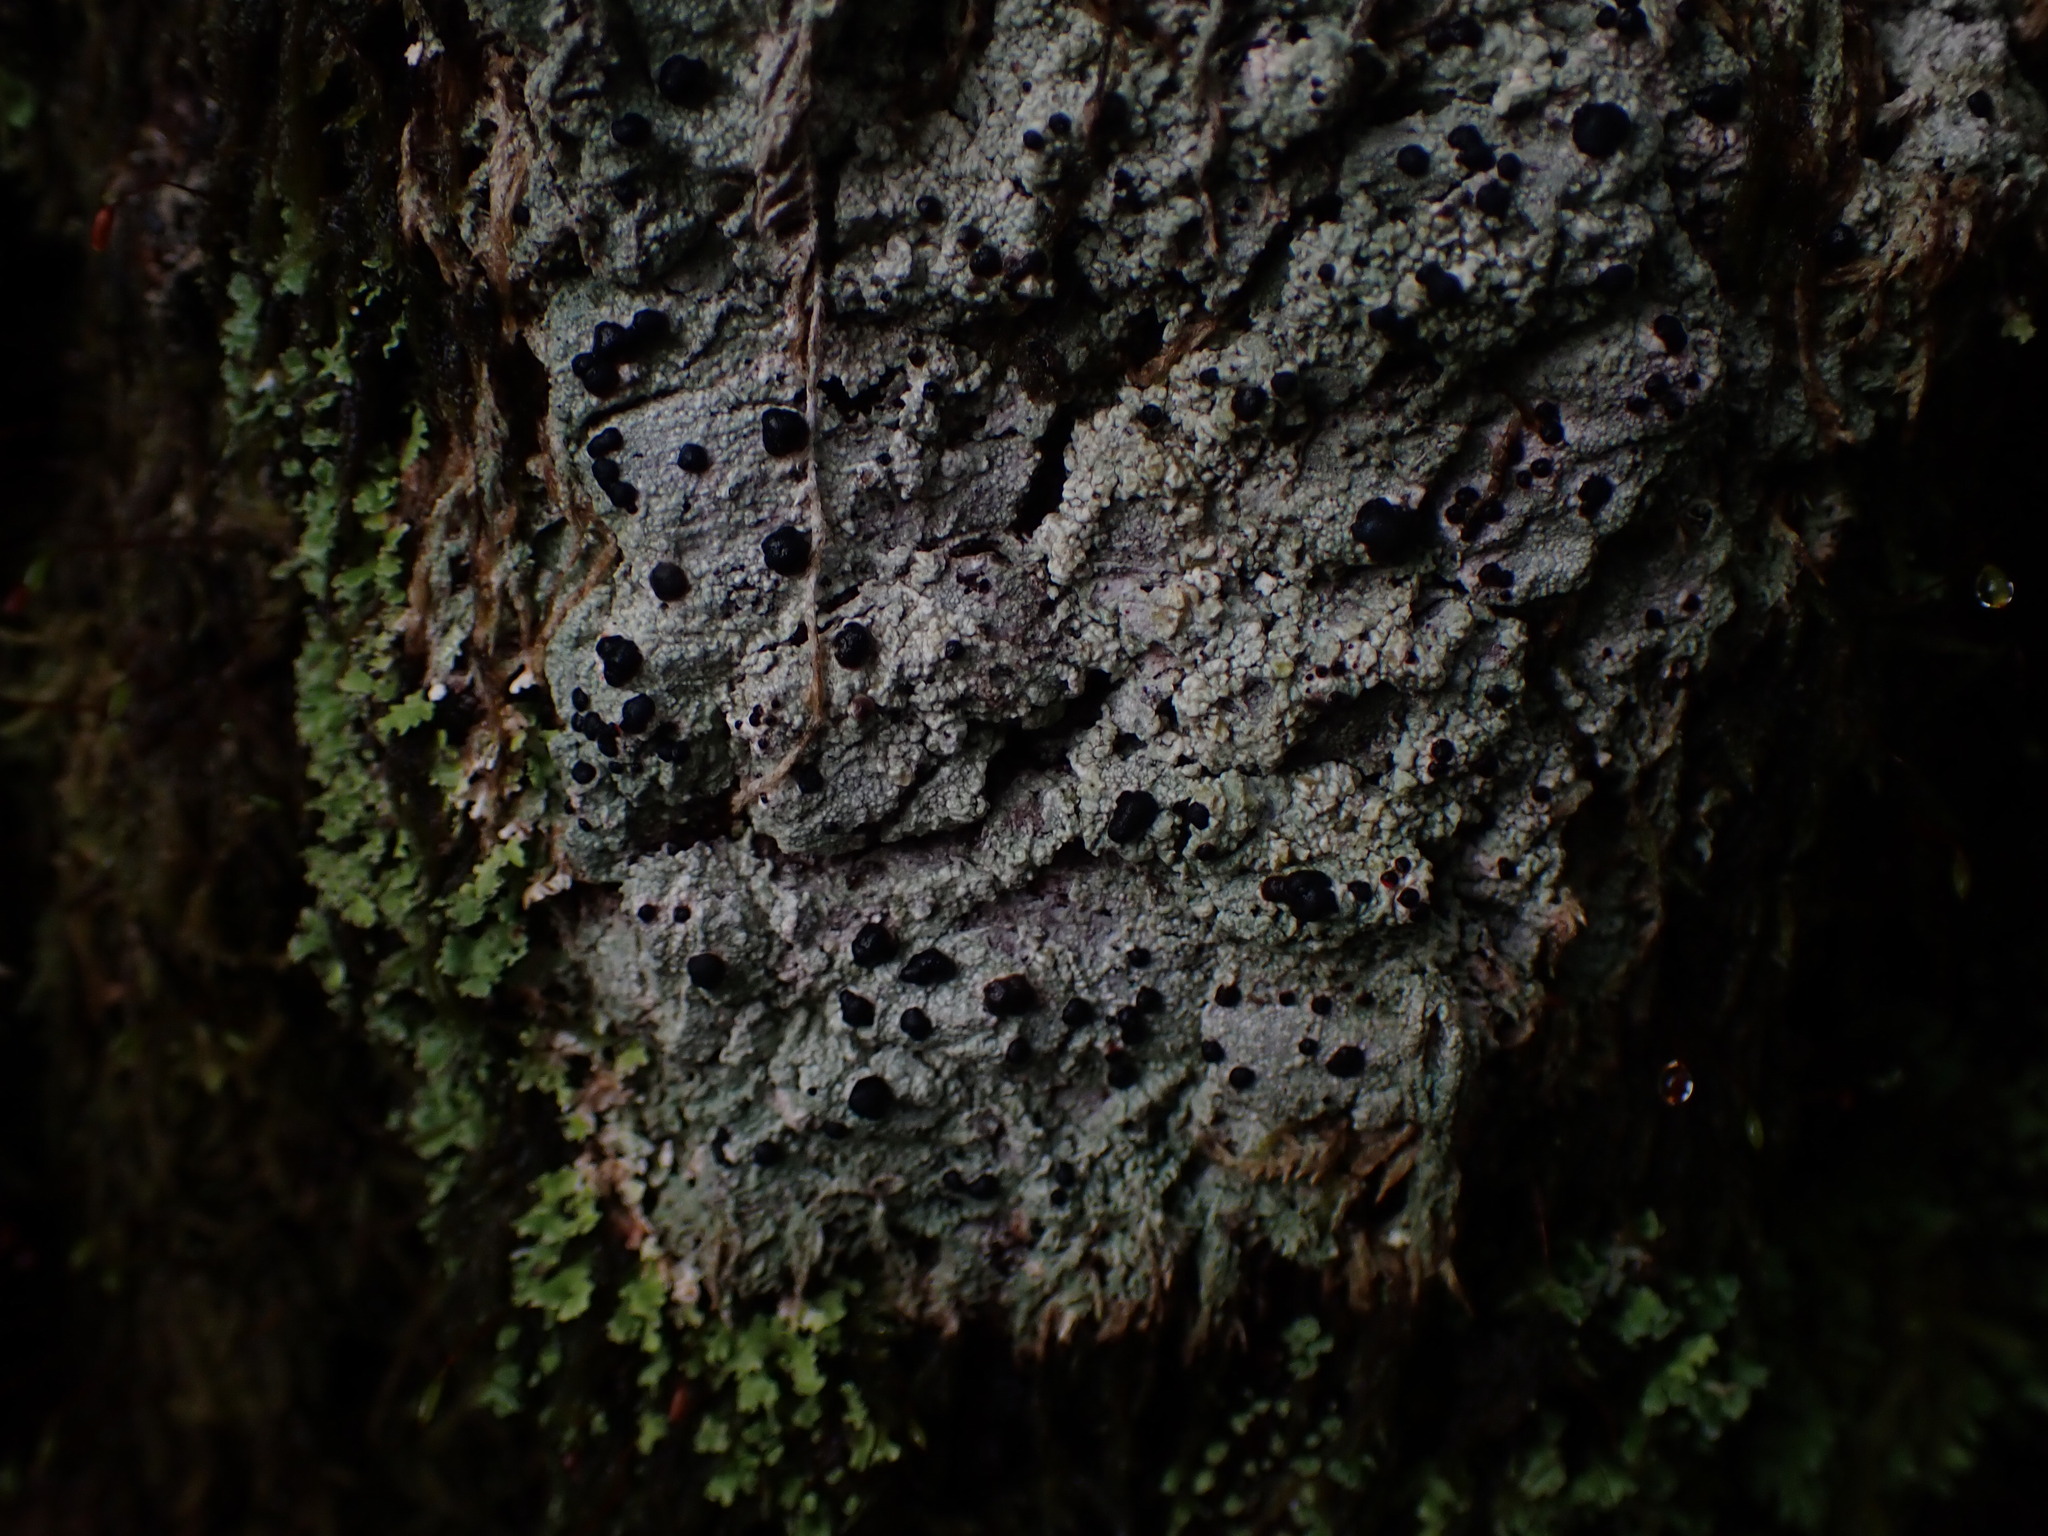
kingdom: Fungi
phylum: Ascomycota
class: Lecanoromycetes
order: Lecanorales
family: Tephromelataceae
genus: Mycoblastus
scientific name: Mycoblastus sanguinarius
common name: Bloody-heart lichen
